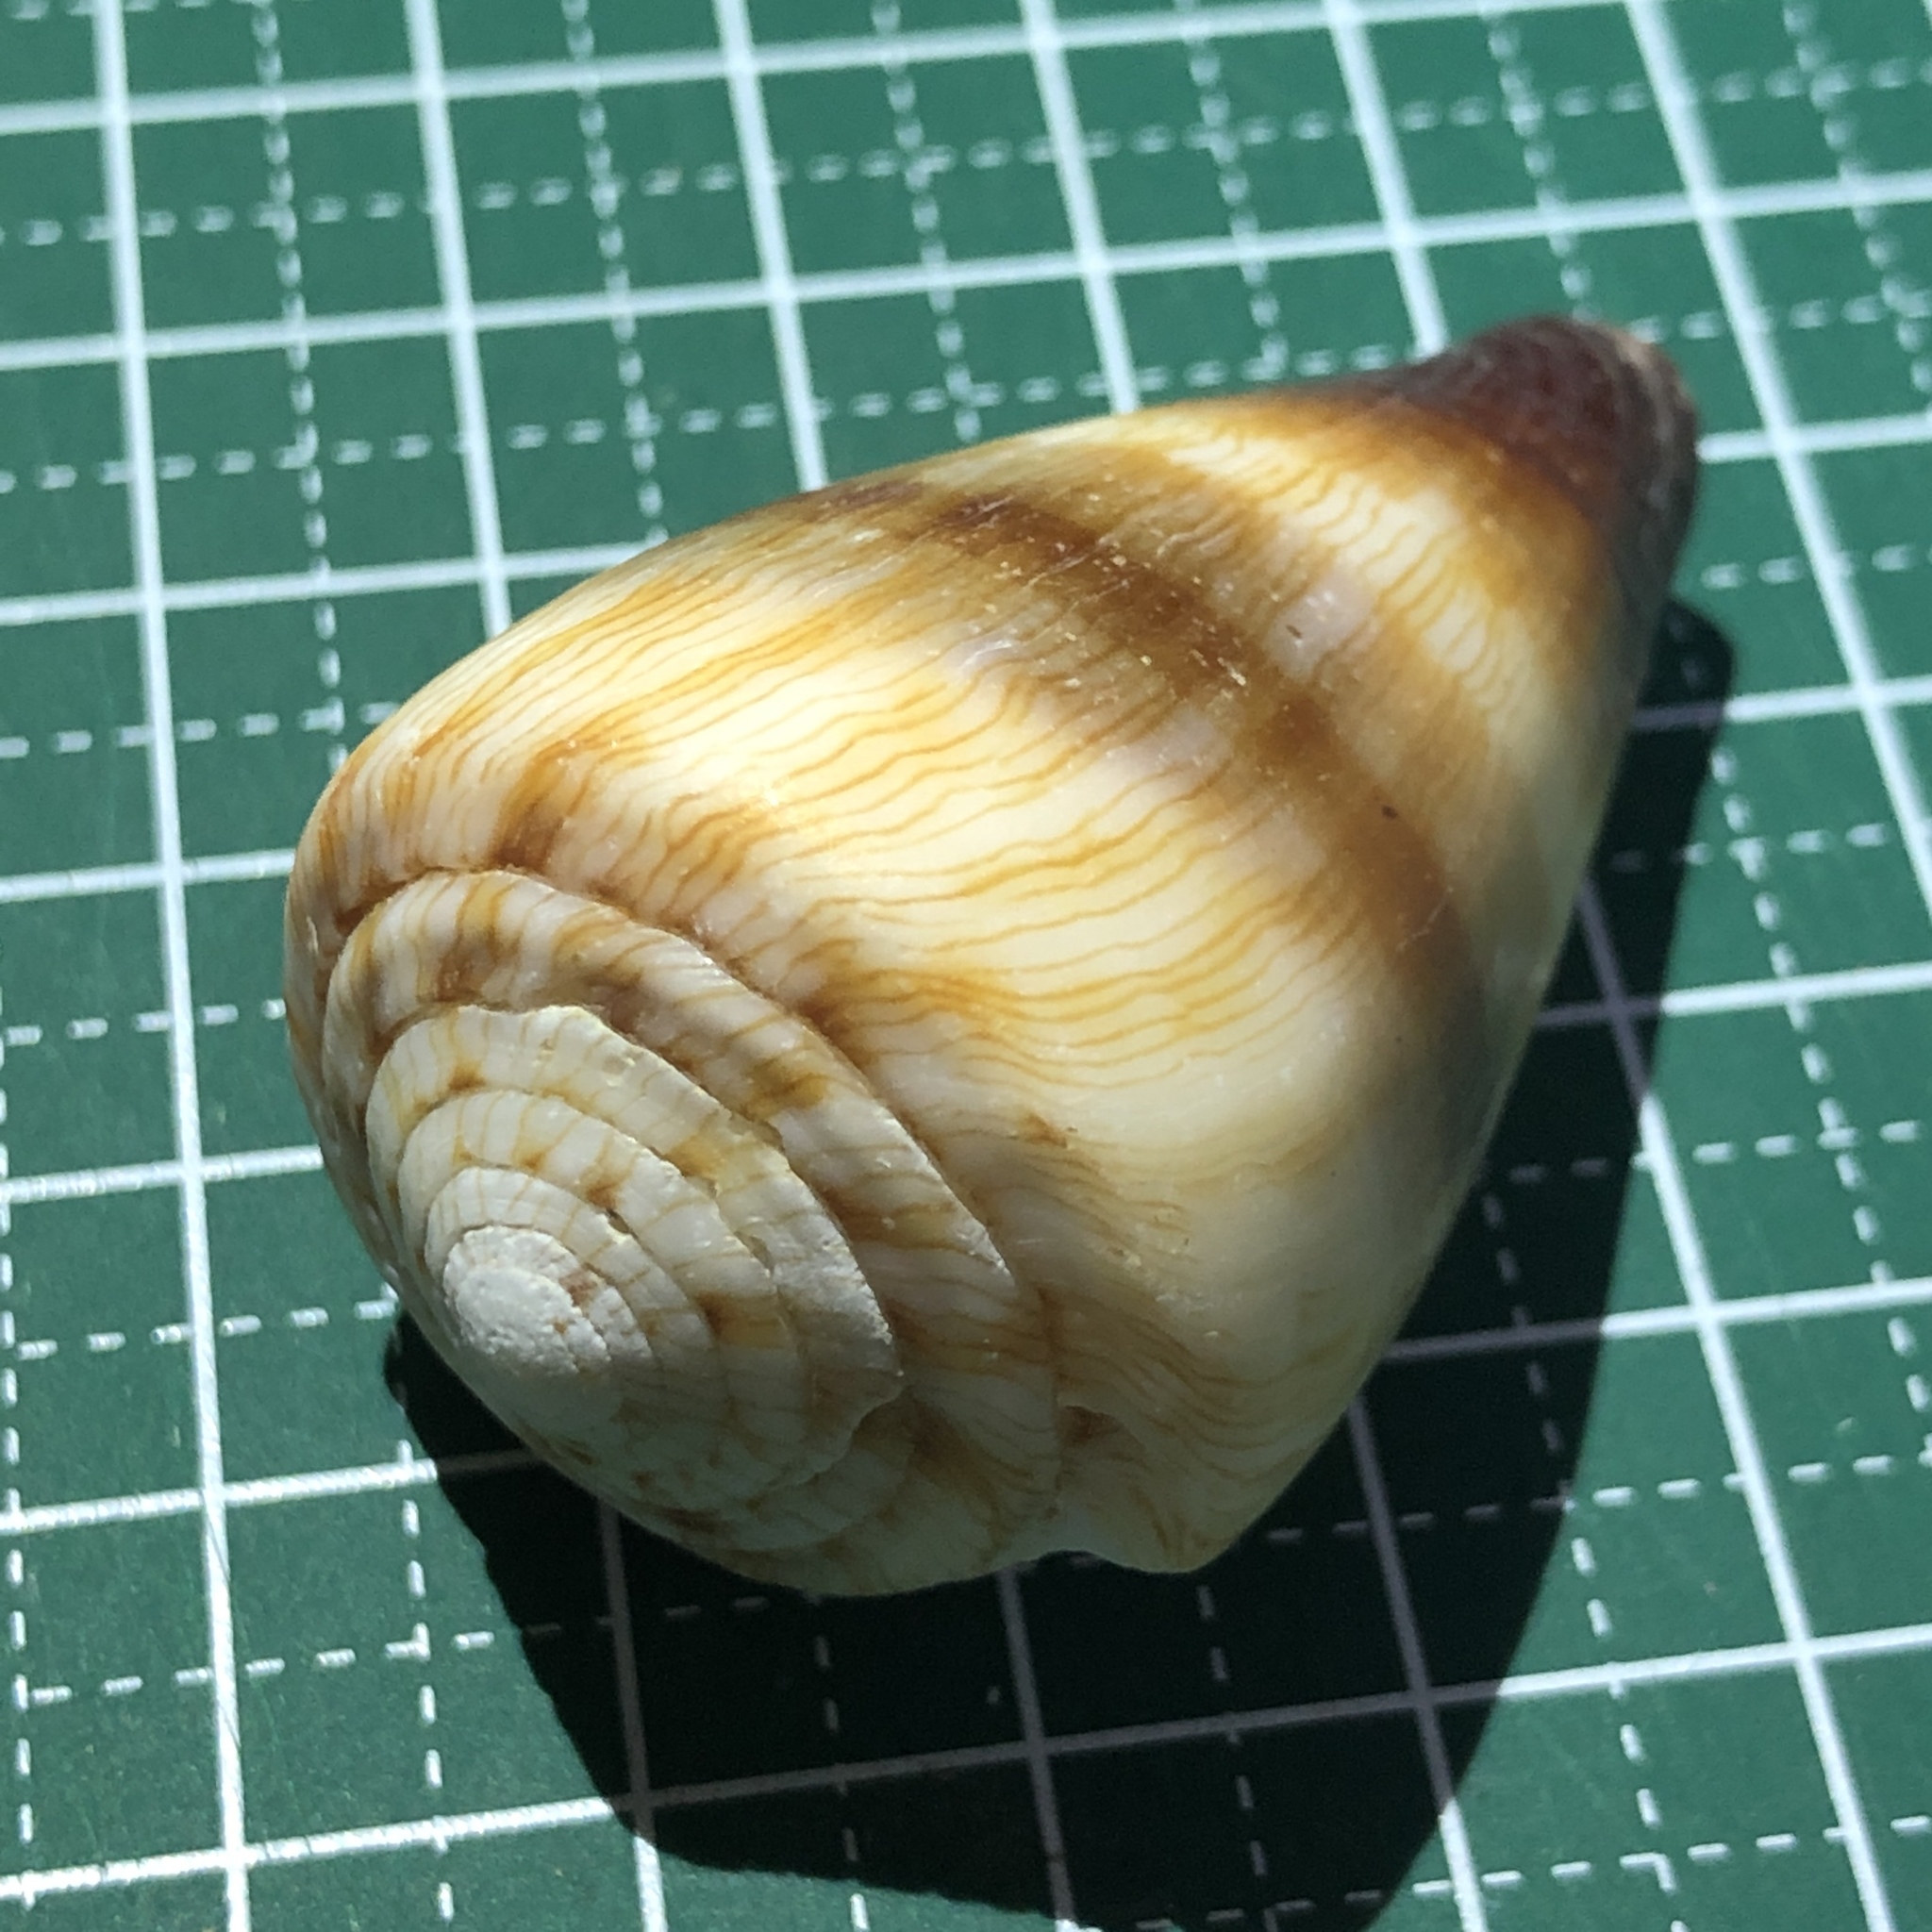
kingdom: Animalia
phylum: Mollusca
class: Gastropoda
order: Neogastropoda
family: Conidae
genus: Conus
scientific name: Conus miles
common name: Soldier cone
